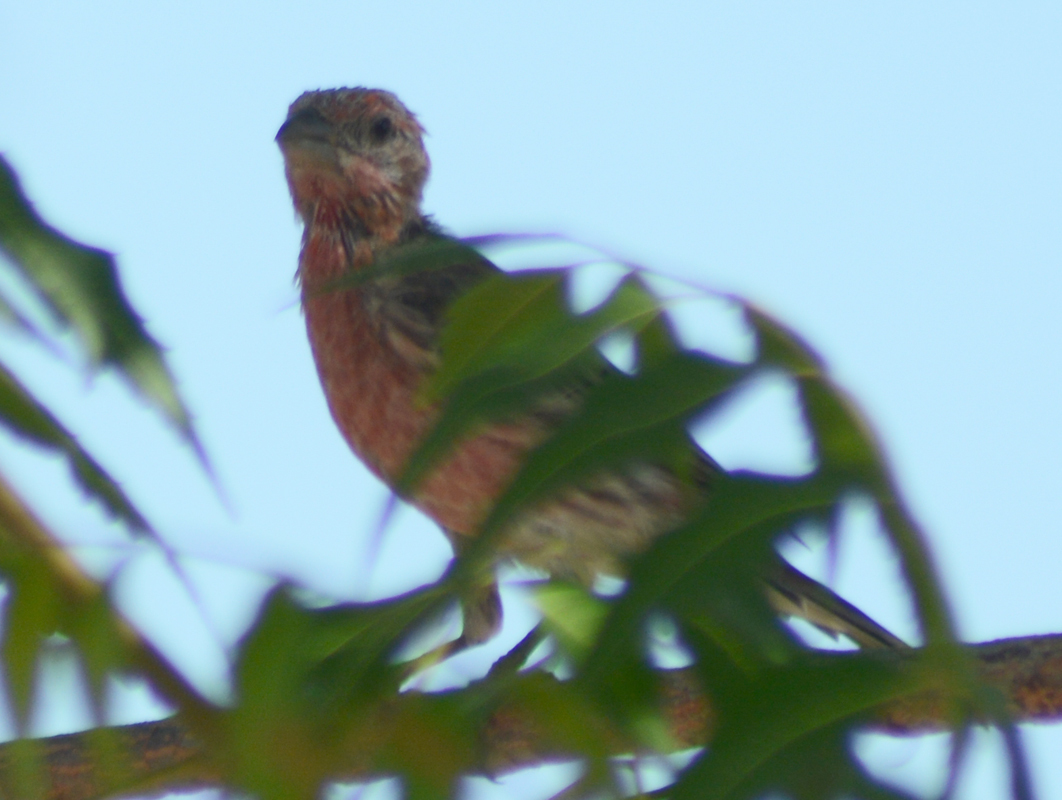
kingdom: Animalia
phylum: Chordata
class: Aves
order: Passeriformes
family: Fringillidae
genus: Haemorhous
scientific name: Haemorhous mexicanus
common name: House finch
